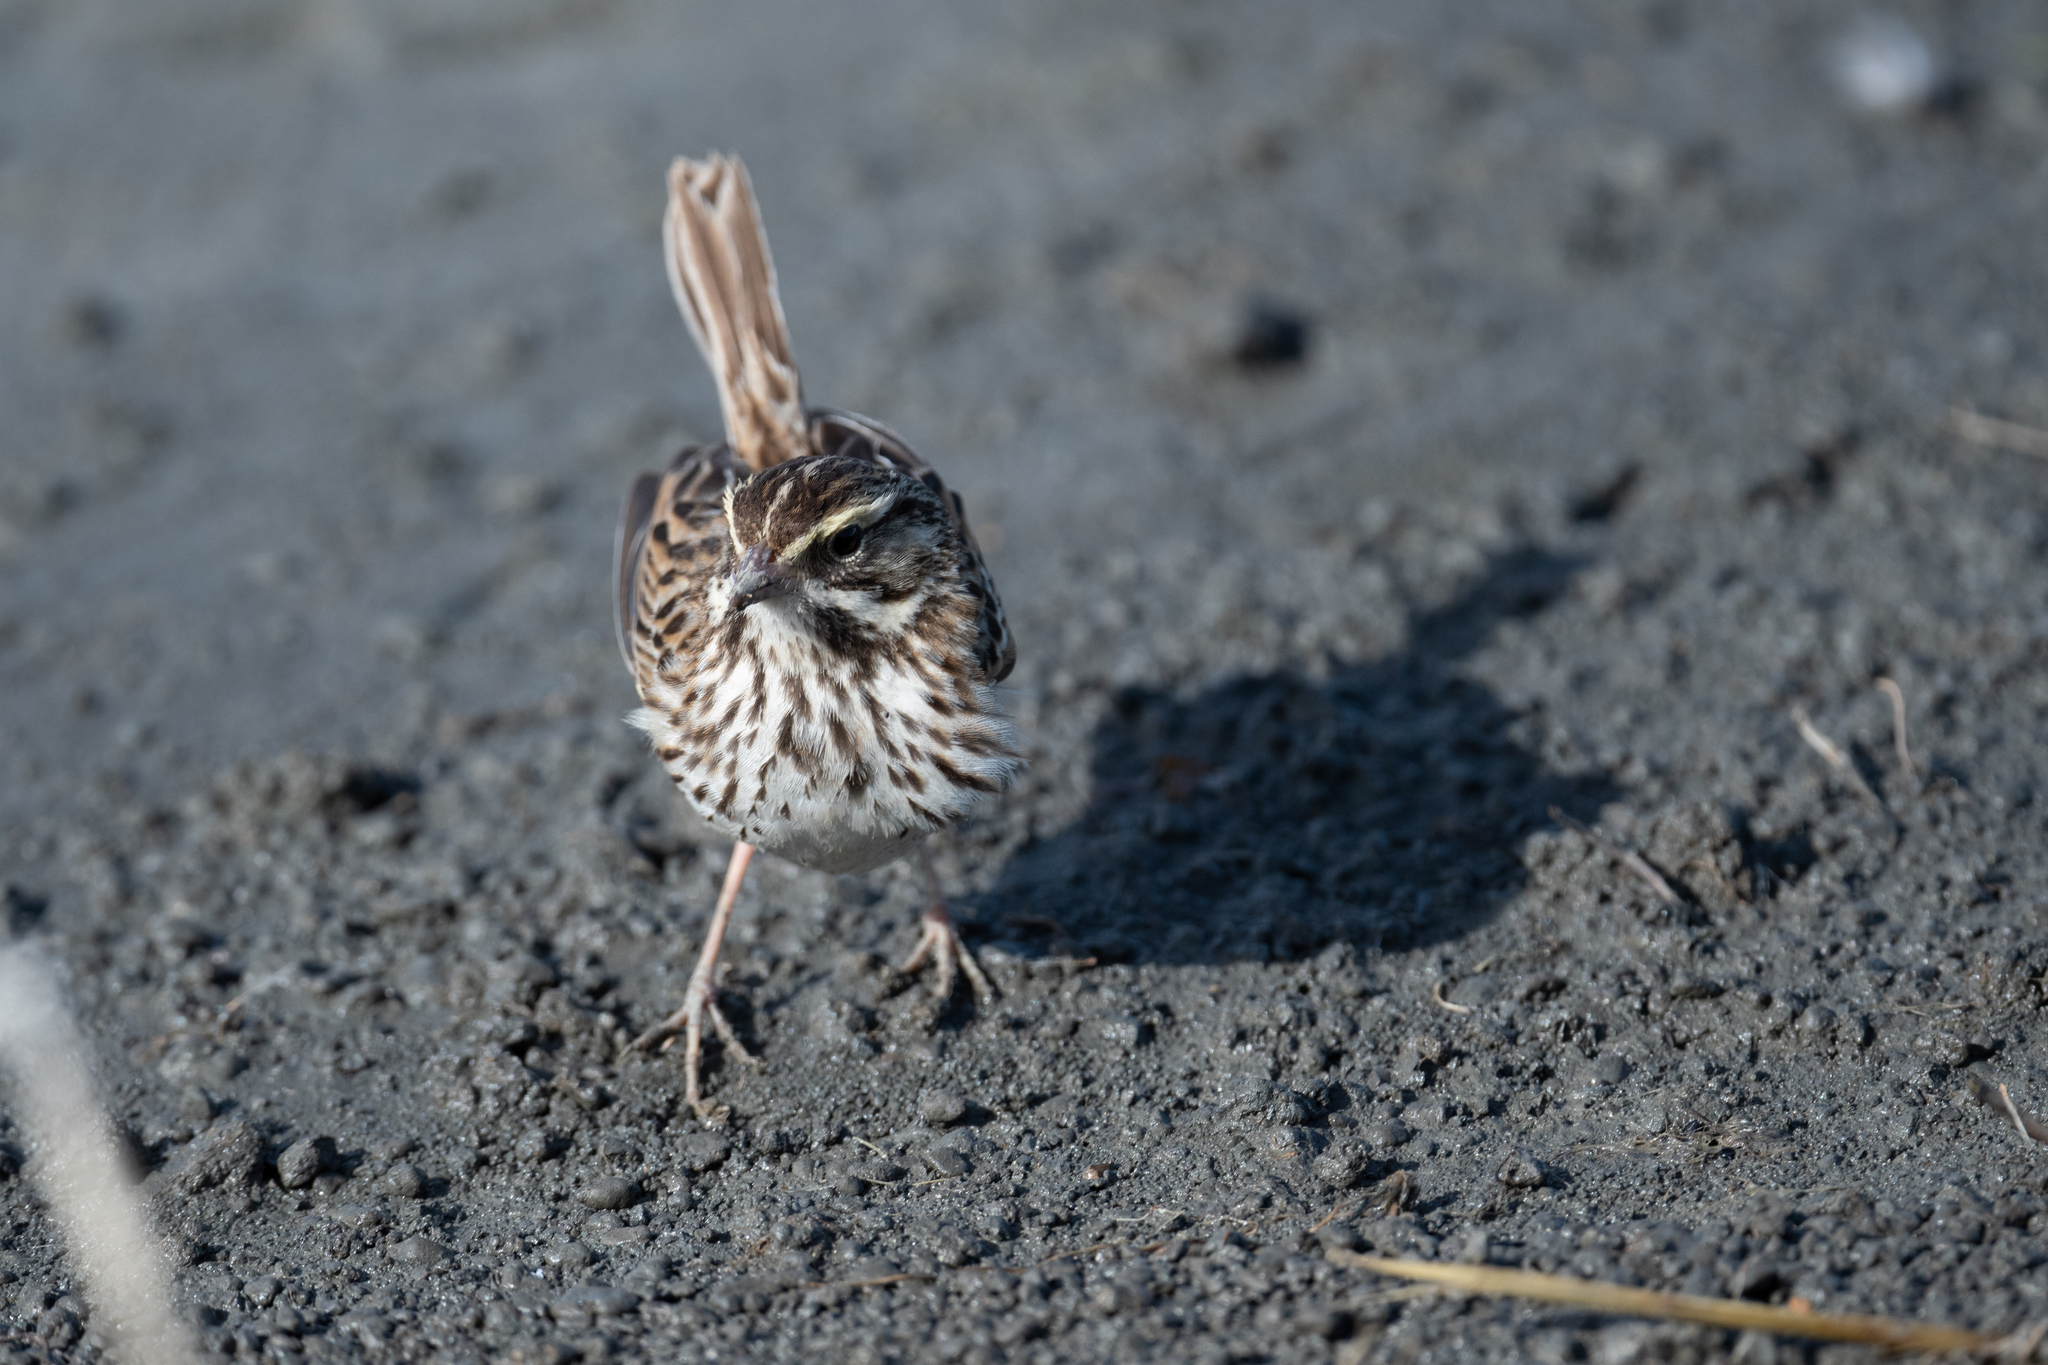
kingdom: Animalia
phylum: Chordata
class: Aves
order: Passeriformes
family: Passerellidae
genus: Passerculus
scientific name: Passerculus sandwichensis
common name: Savannah sparrow
